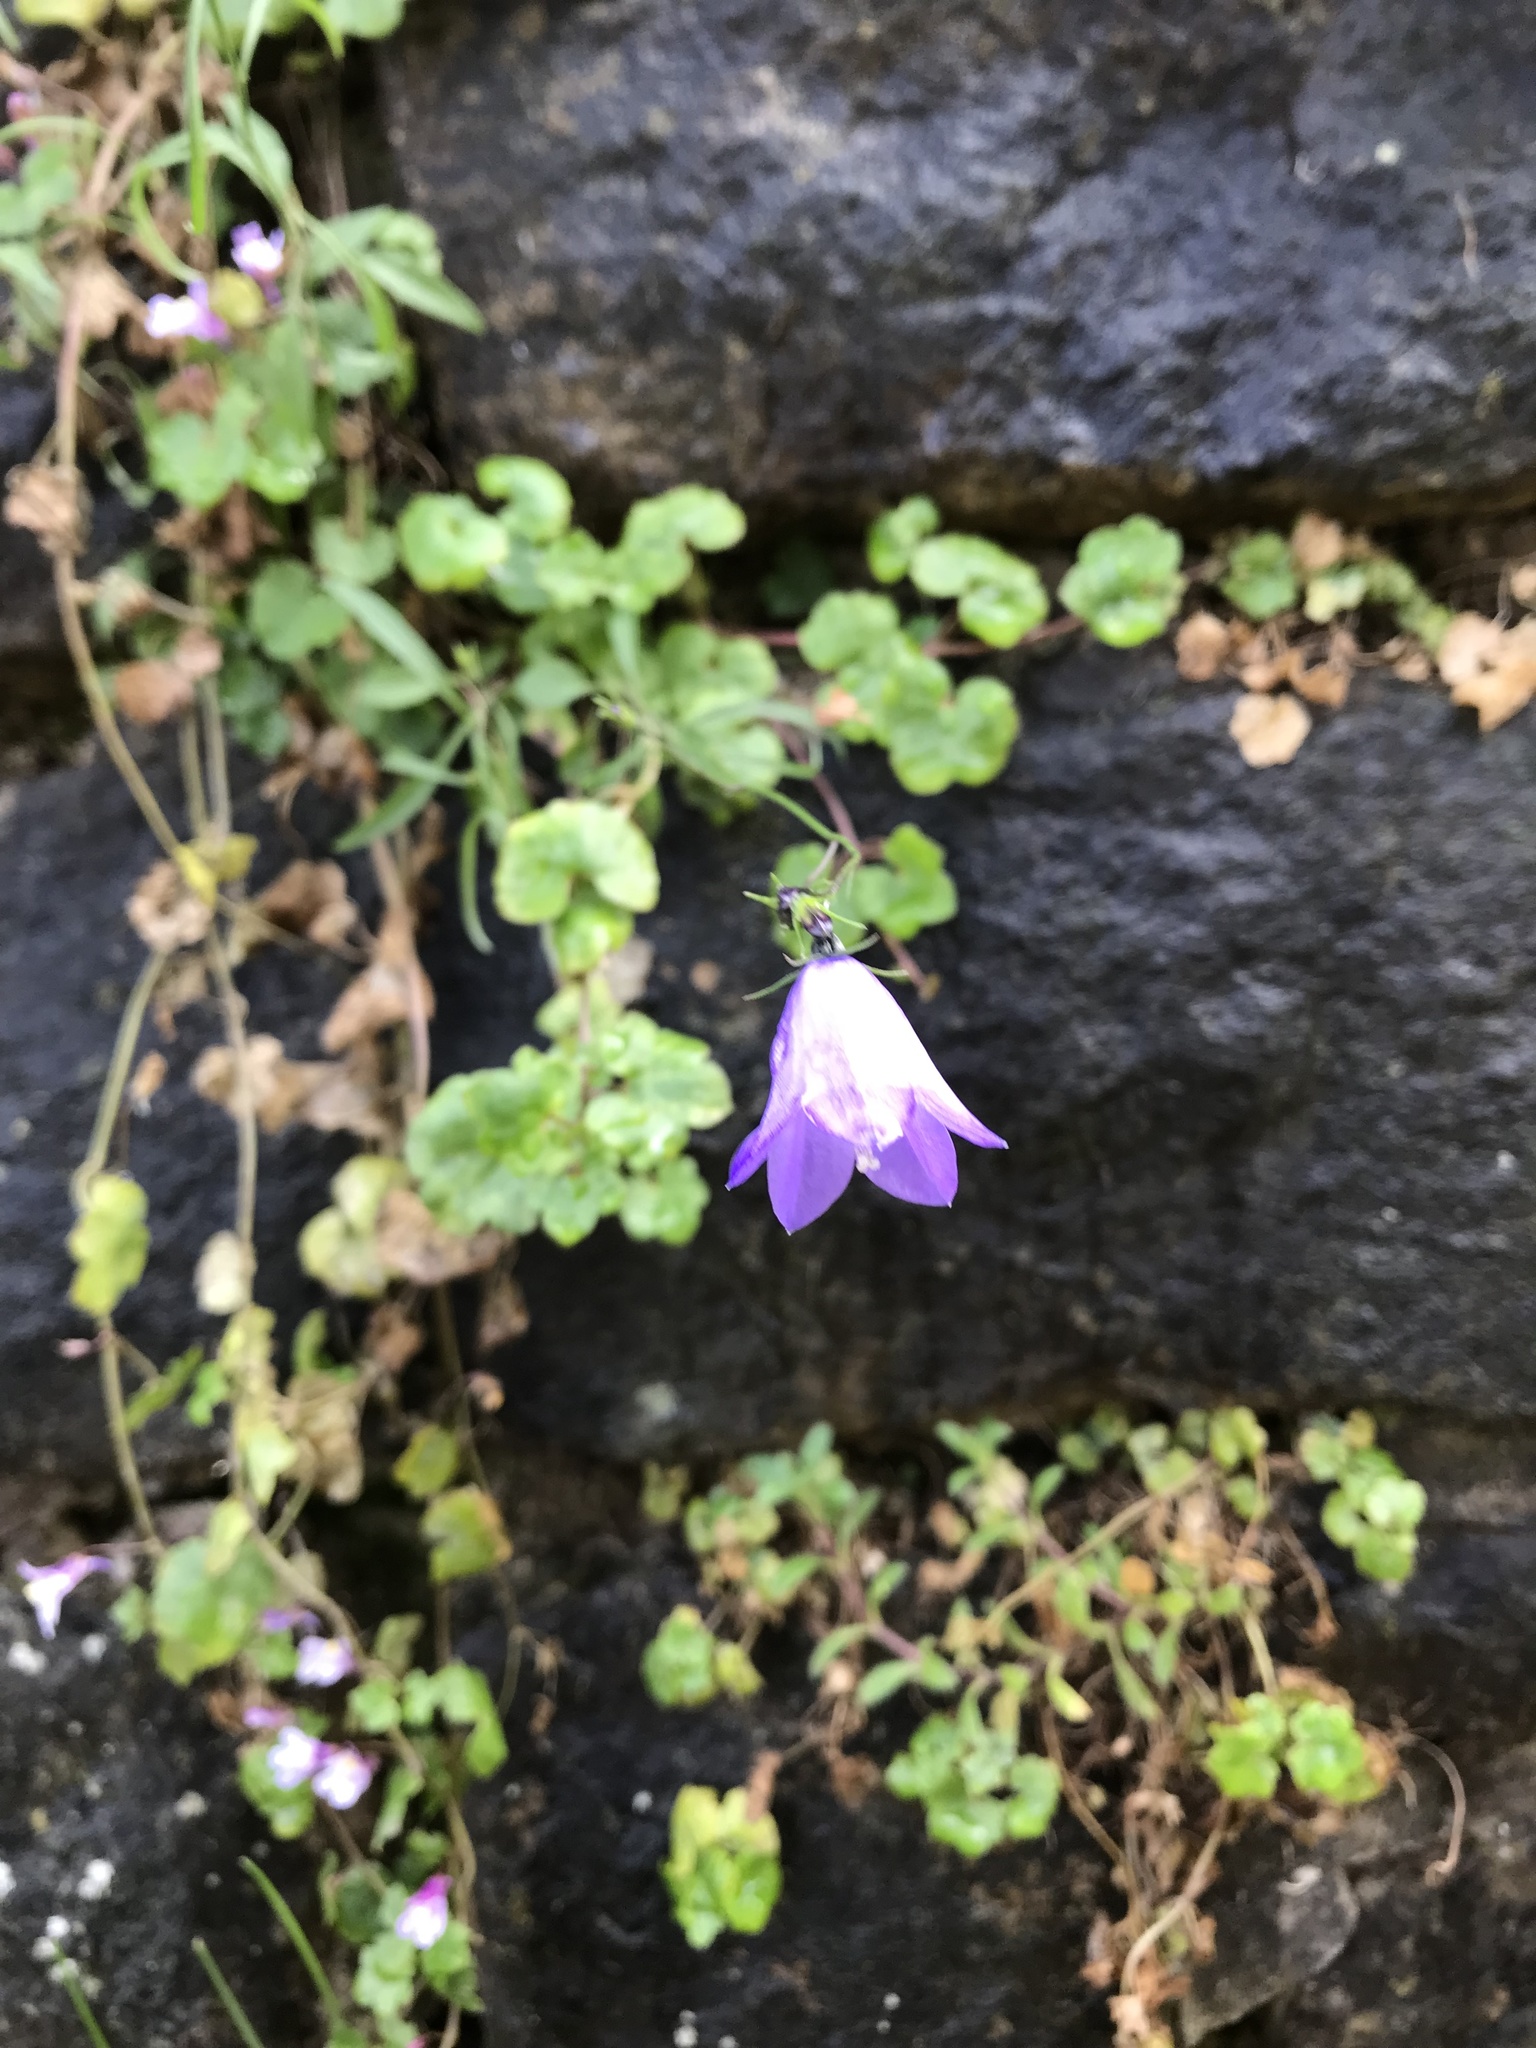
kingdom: Plantae
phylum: Tracheophyta
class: Magnoliopsida
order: Asterales
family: Campanulaceae
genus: Campanula
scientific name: Campanula rotundifolia
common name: Harebell
